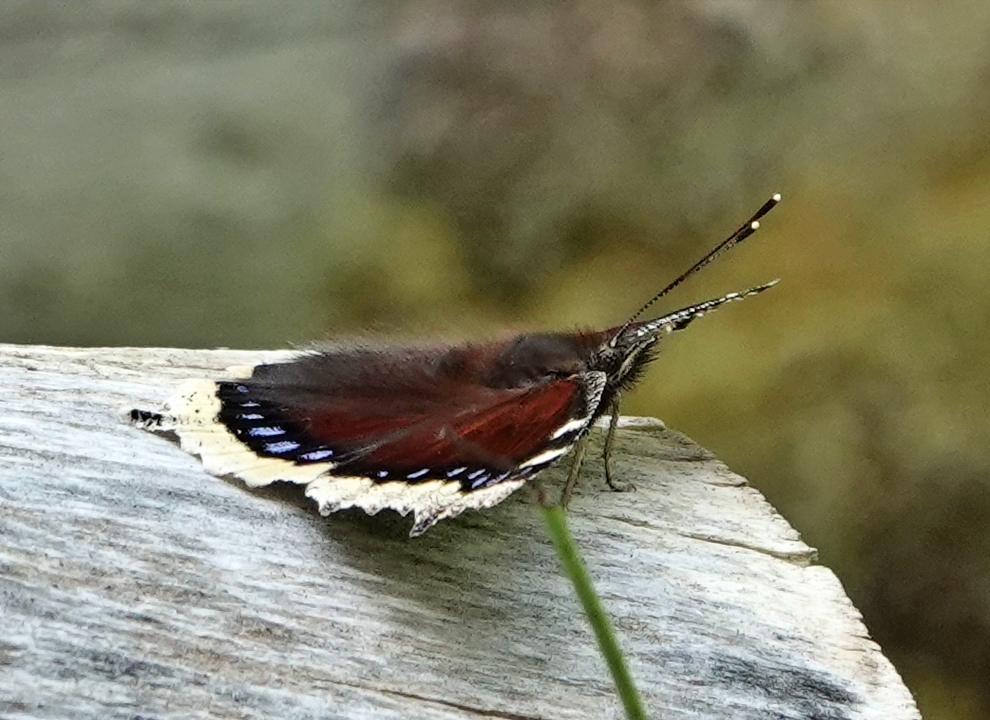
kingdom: Animalia
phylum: Arthropoda
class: Insecta
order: Lepidoptera
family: Nymphalidae
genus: Nymphalis
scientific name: Nymphalis antiopa
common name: Camberwell beauty
